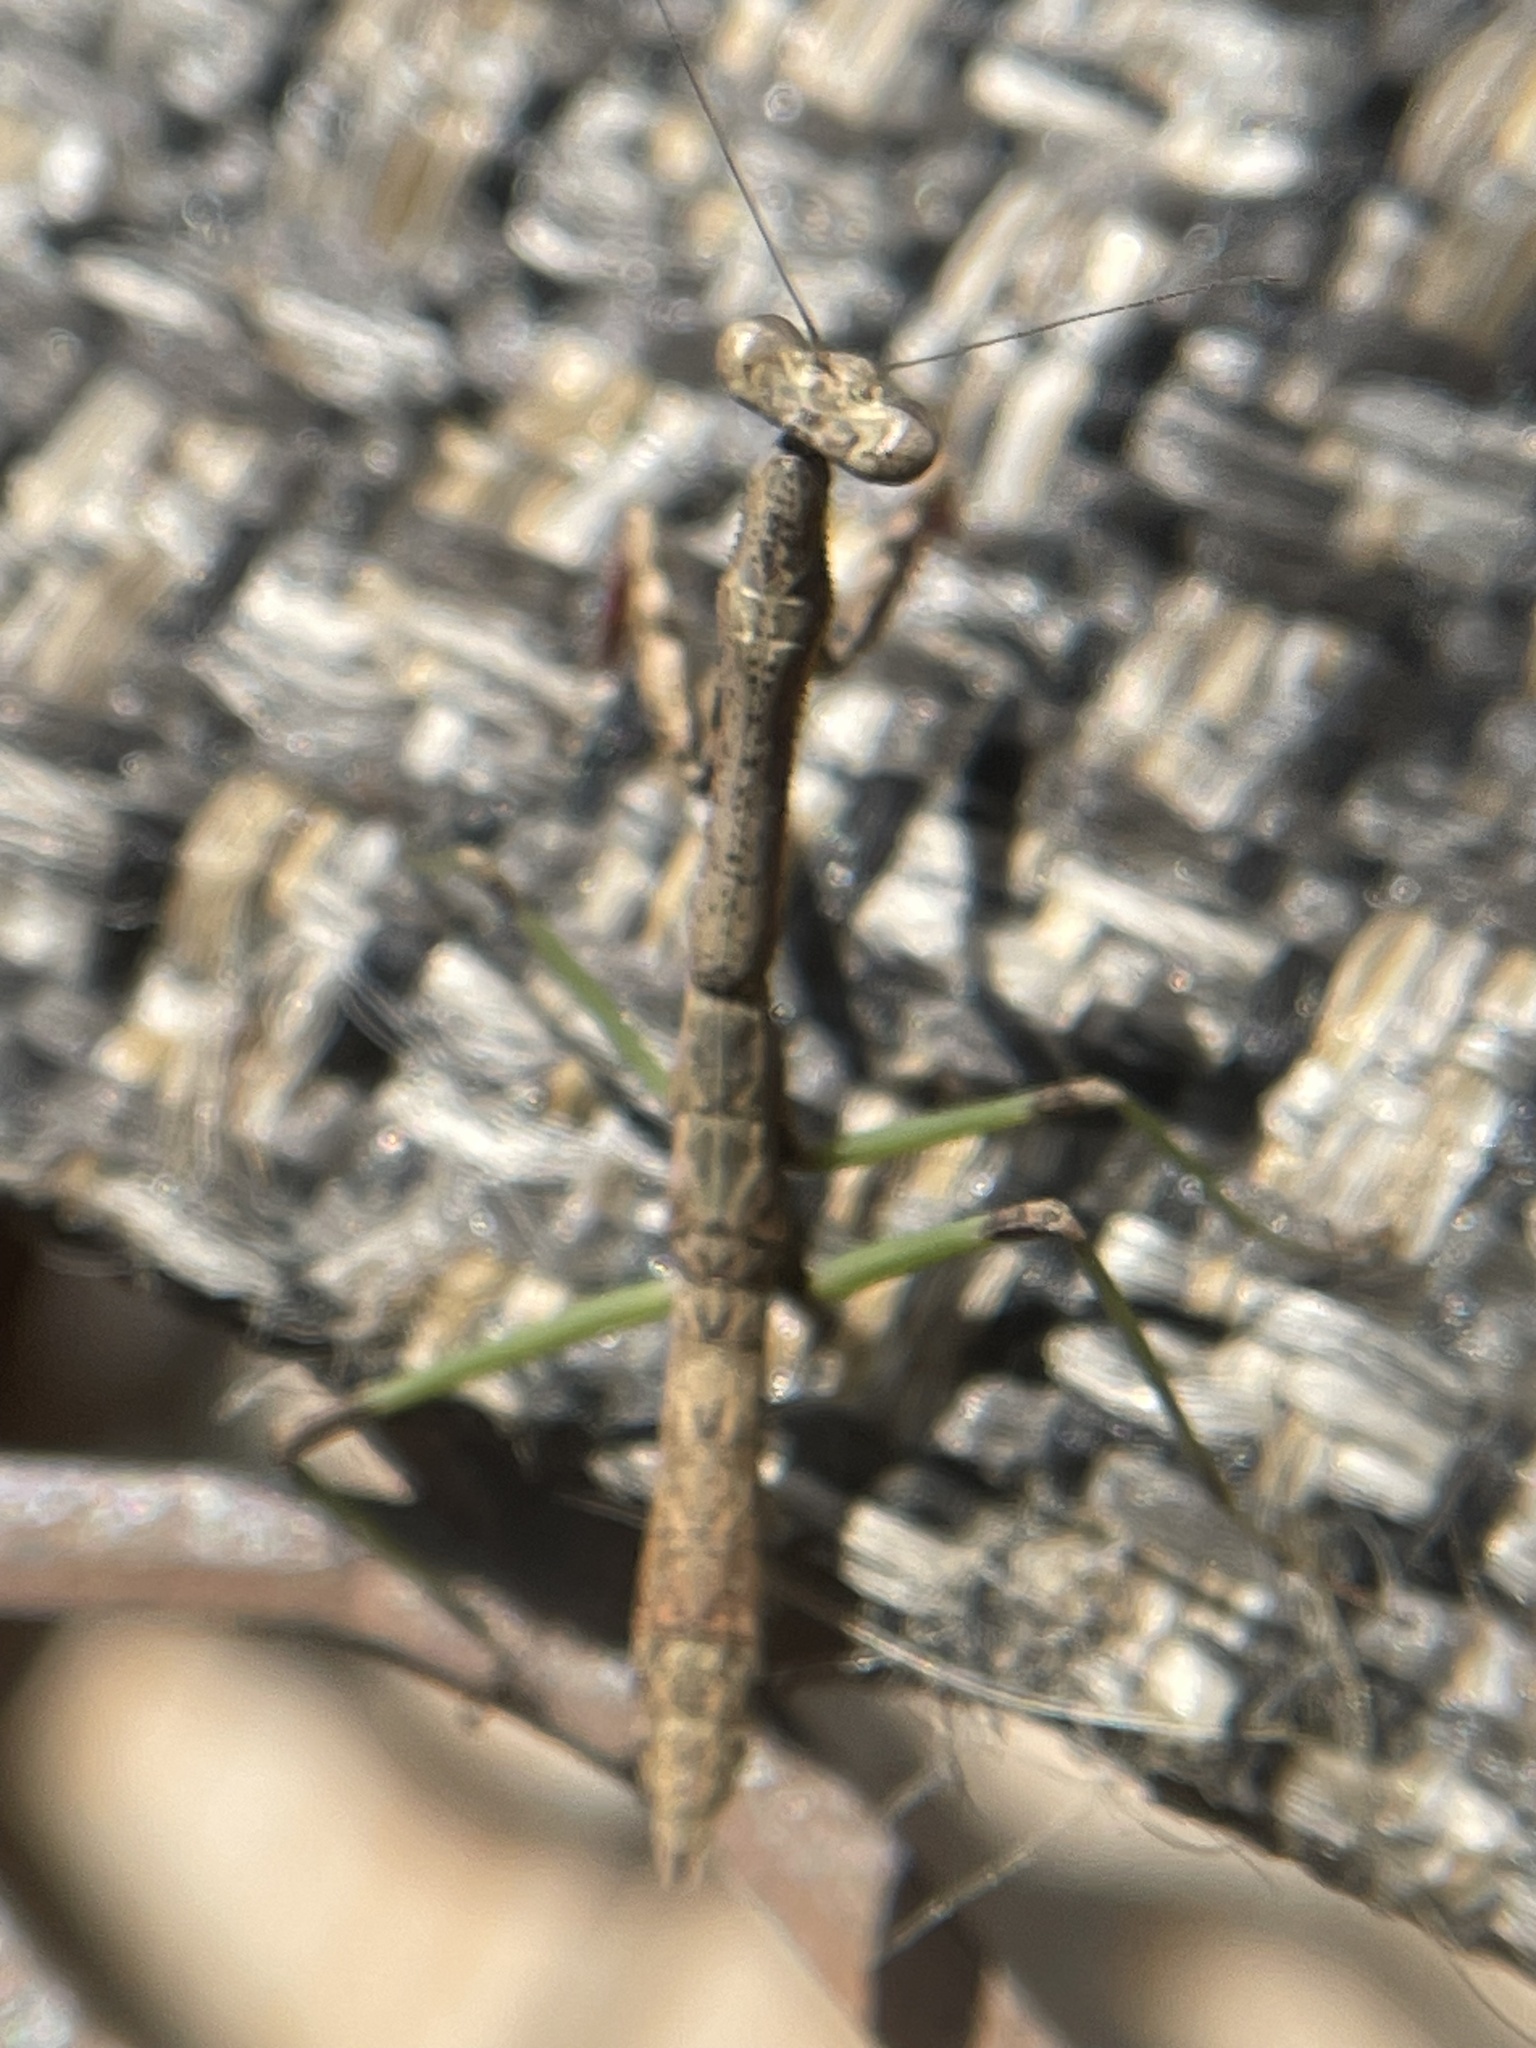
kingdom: Animalia
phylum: Arthropoda
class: Insecta
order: Mantodea
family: Mantidae
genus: Stagmomantis
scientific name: Stagmomantis carolina
